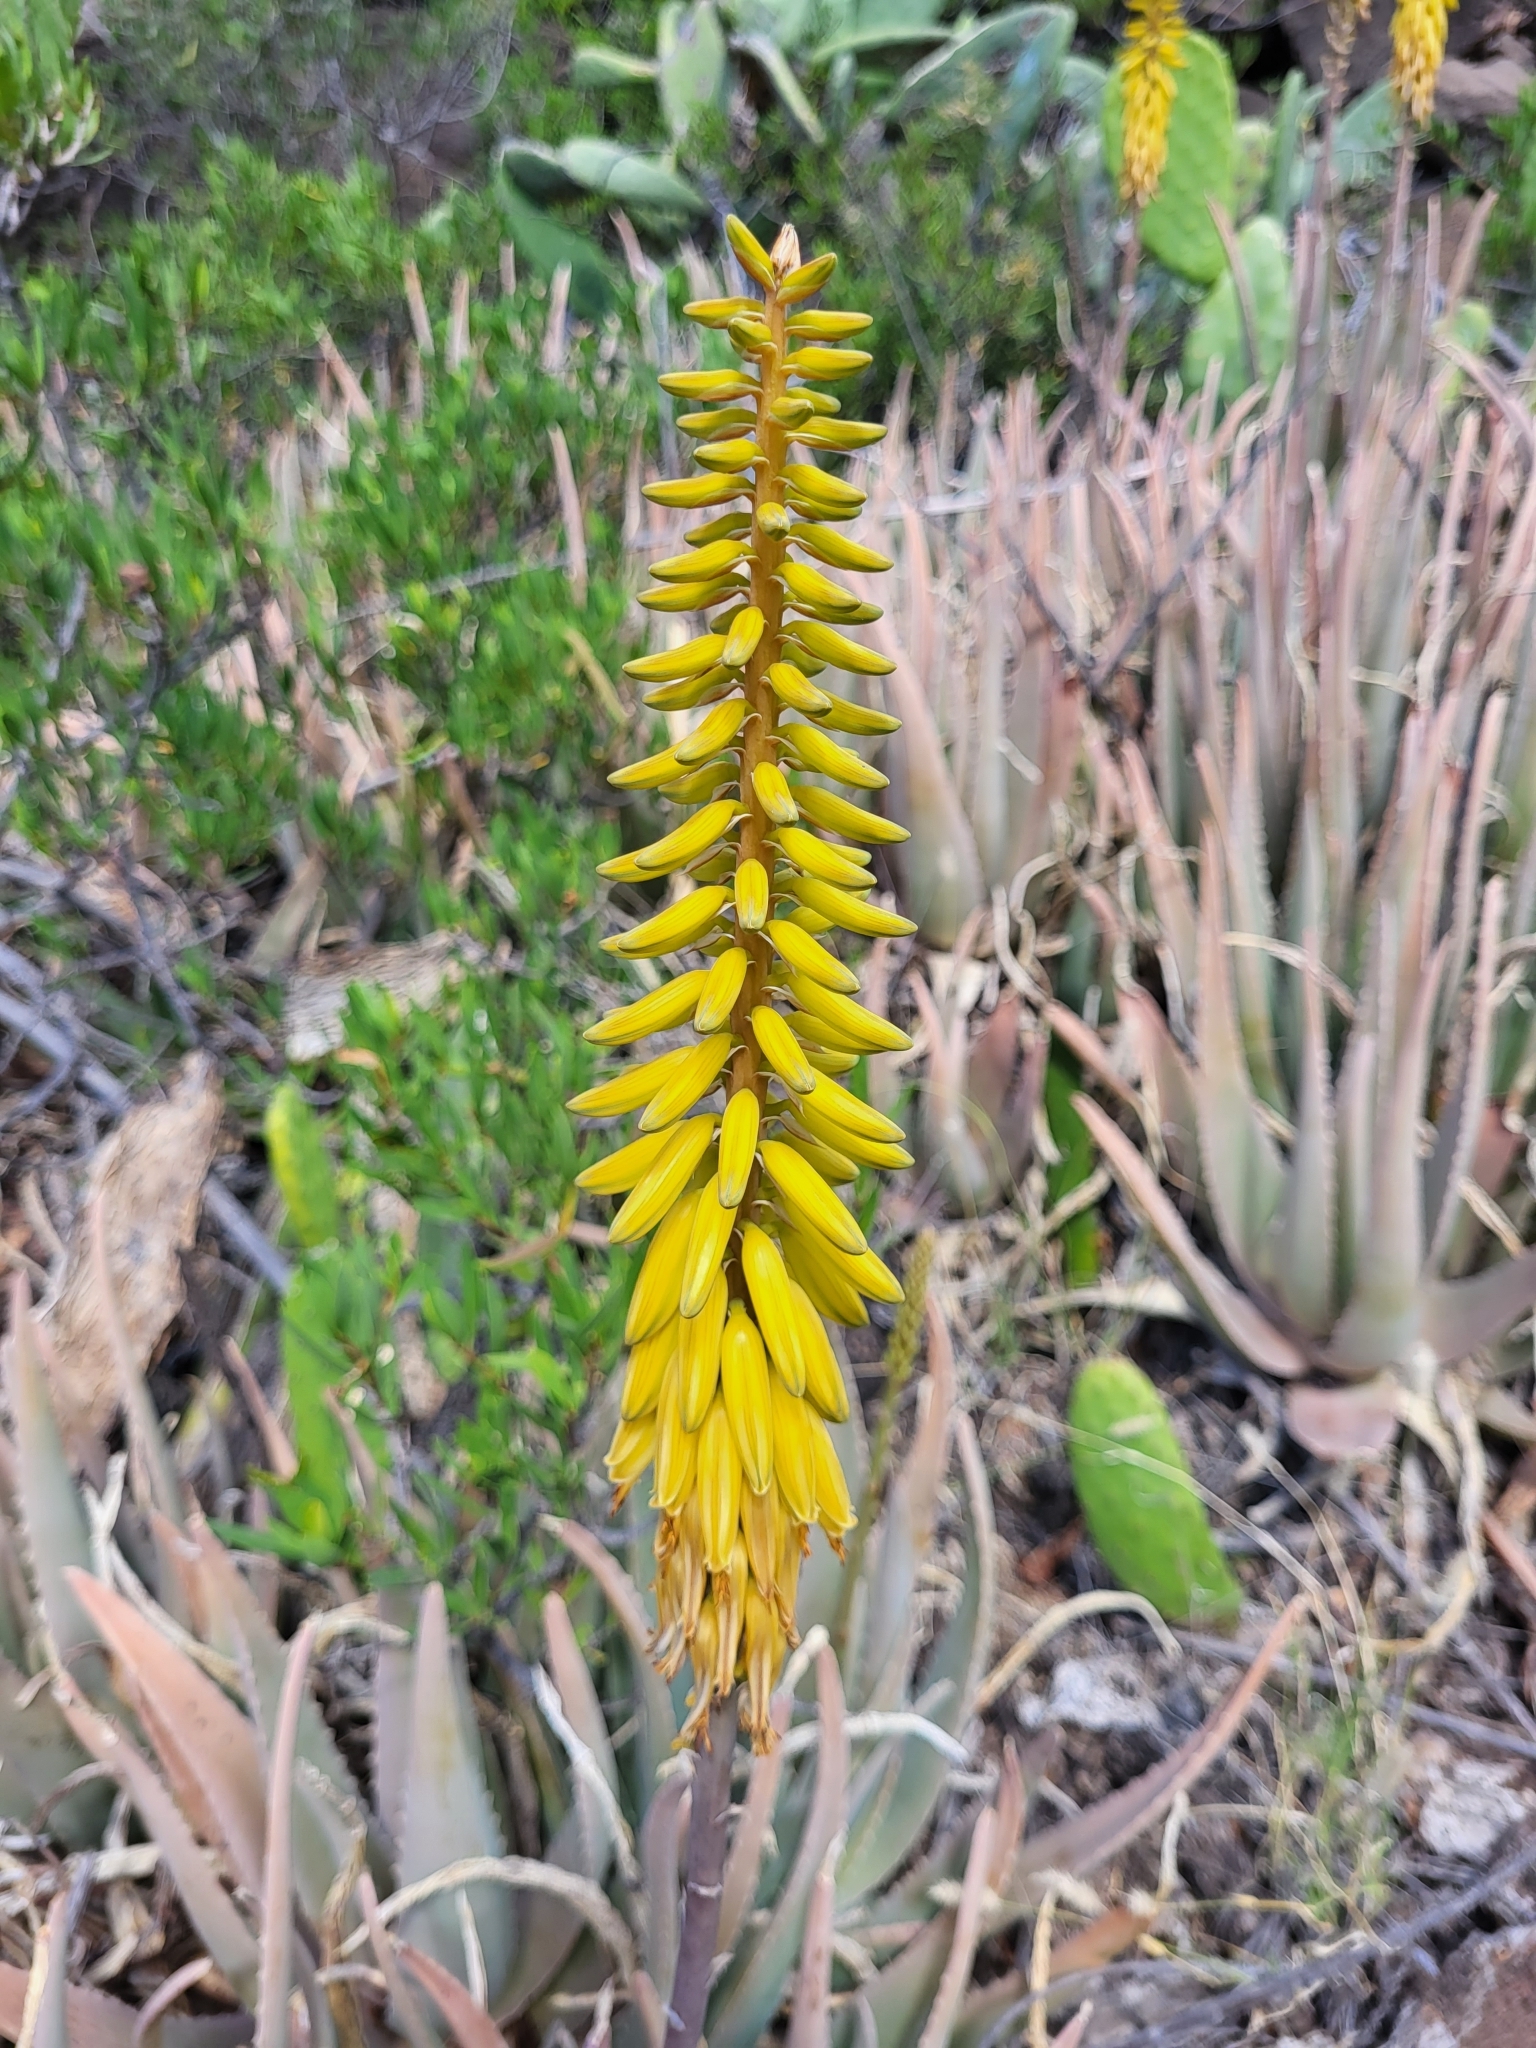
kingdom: Plantae
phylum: Tracheophyta
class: Liliopsida
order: Asparagales
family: Asphodelaceae
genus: Aloe
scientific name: Aloe vera
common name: Barbados aloe
